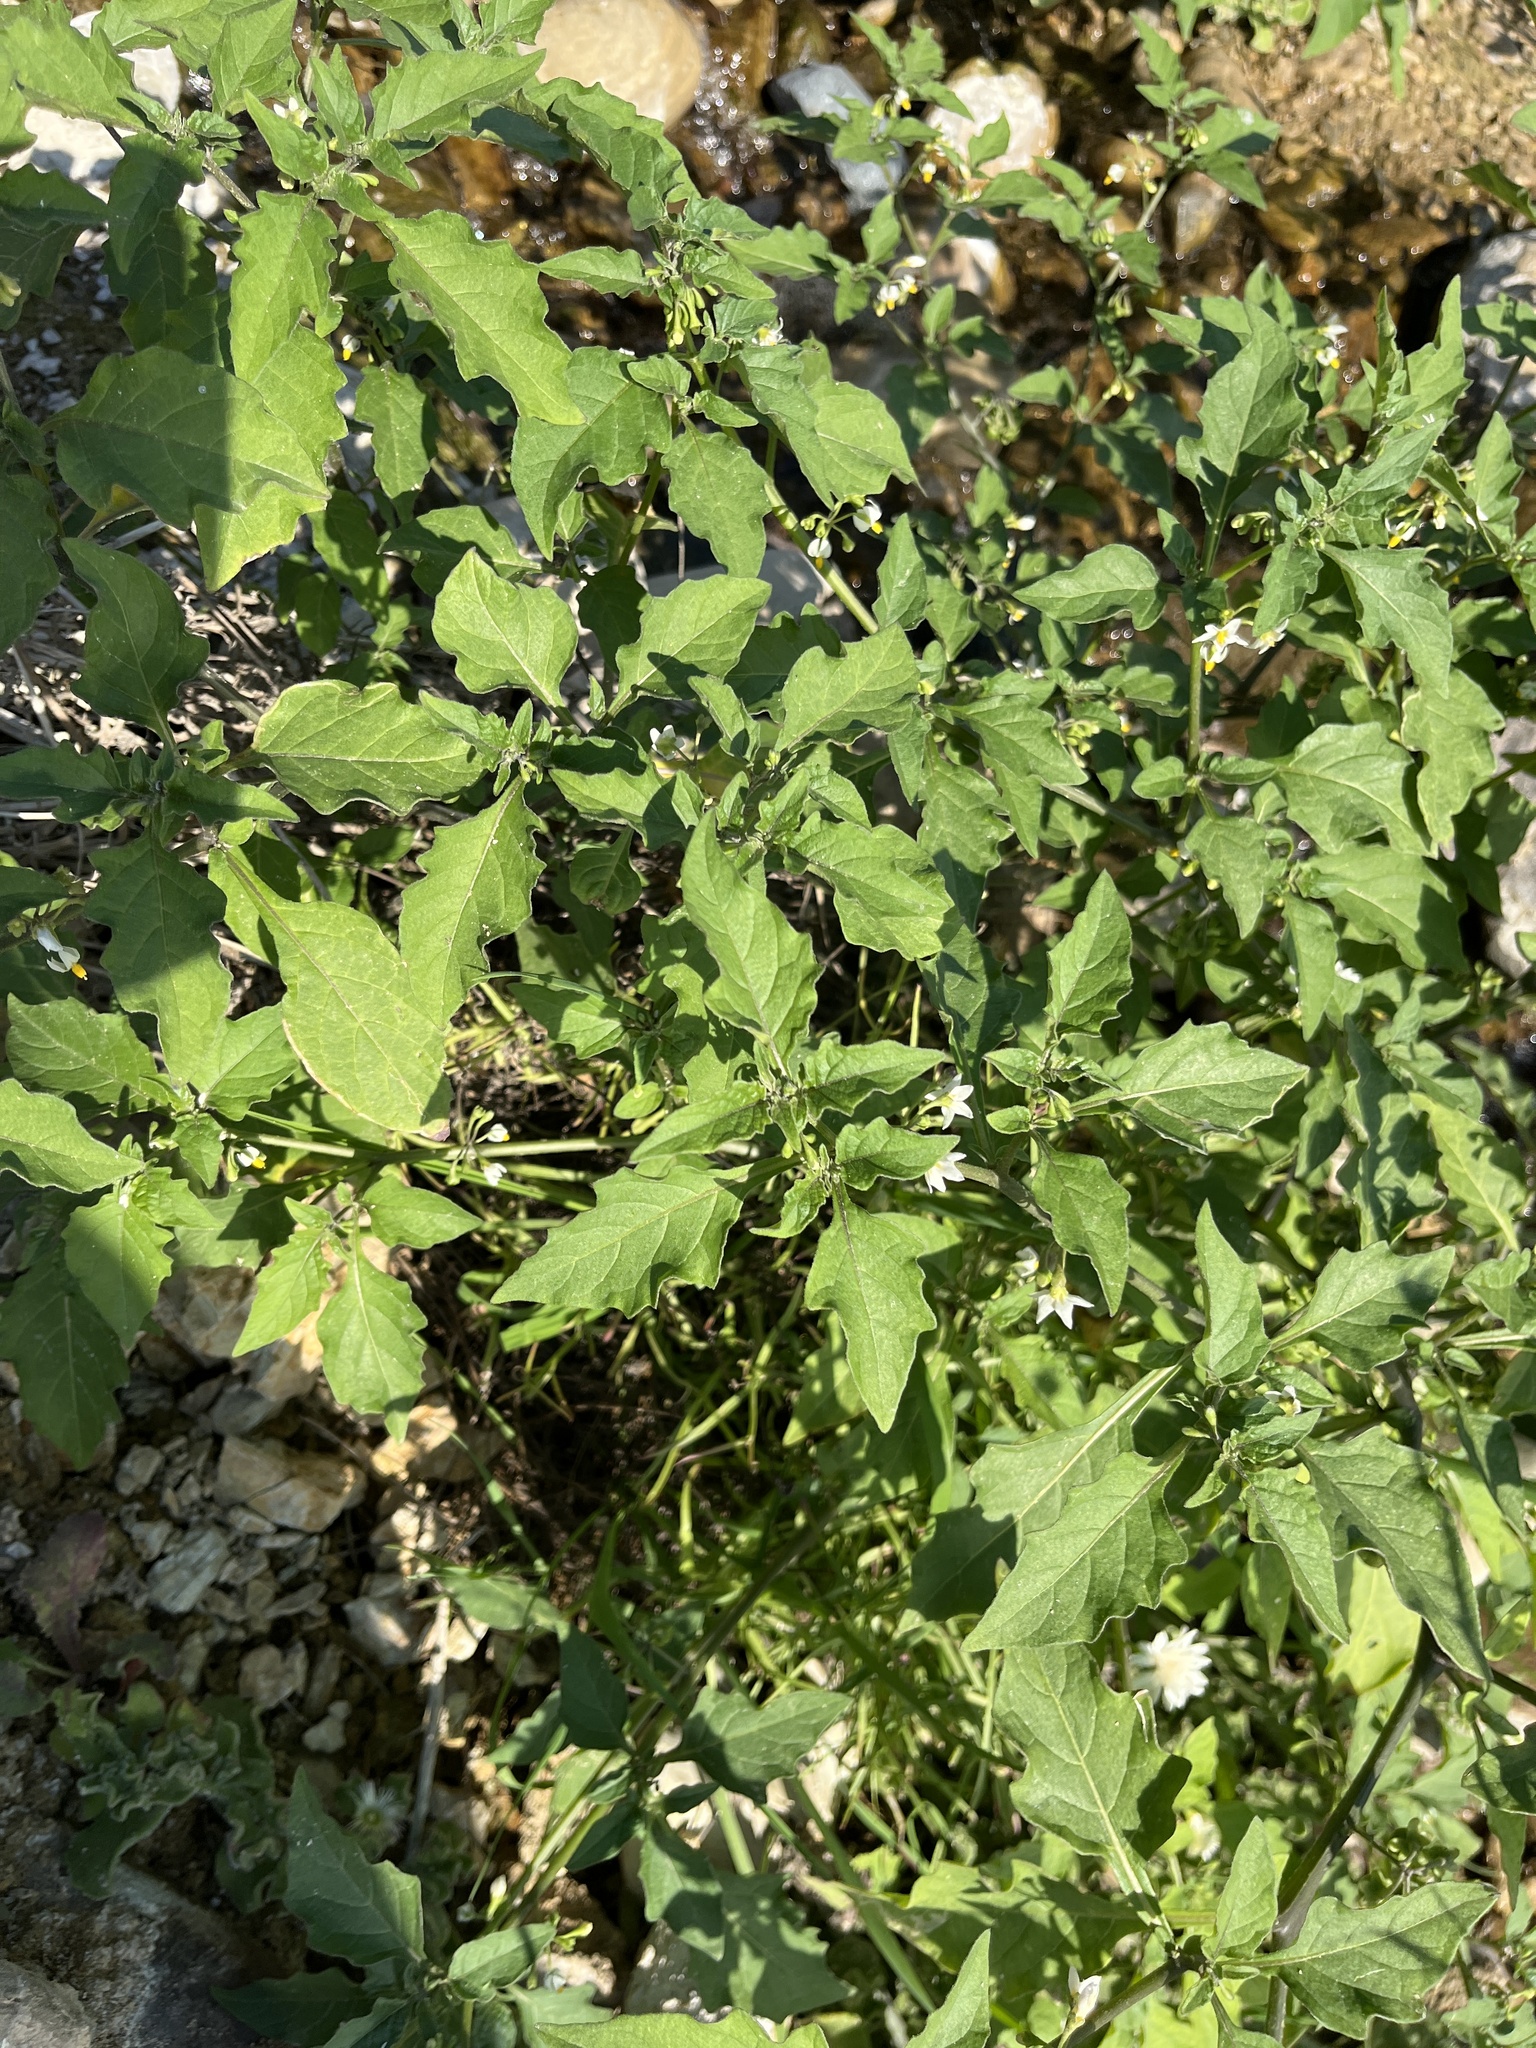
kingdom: Plantae
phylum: Tracheophyta
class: Magnoliopsida
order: Solanales
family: Solanaceae
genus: Solanum
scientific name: Solanum douglasii
